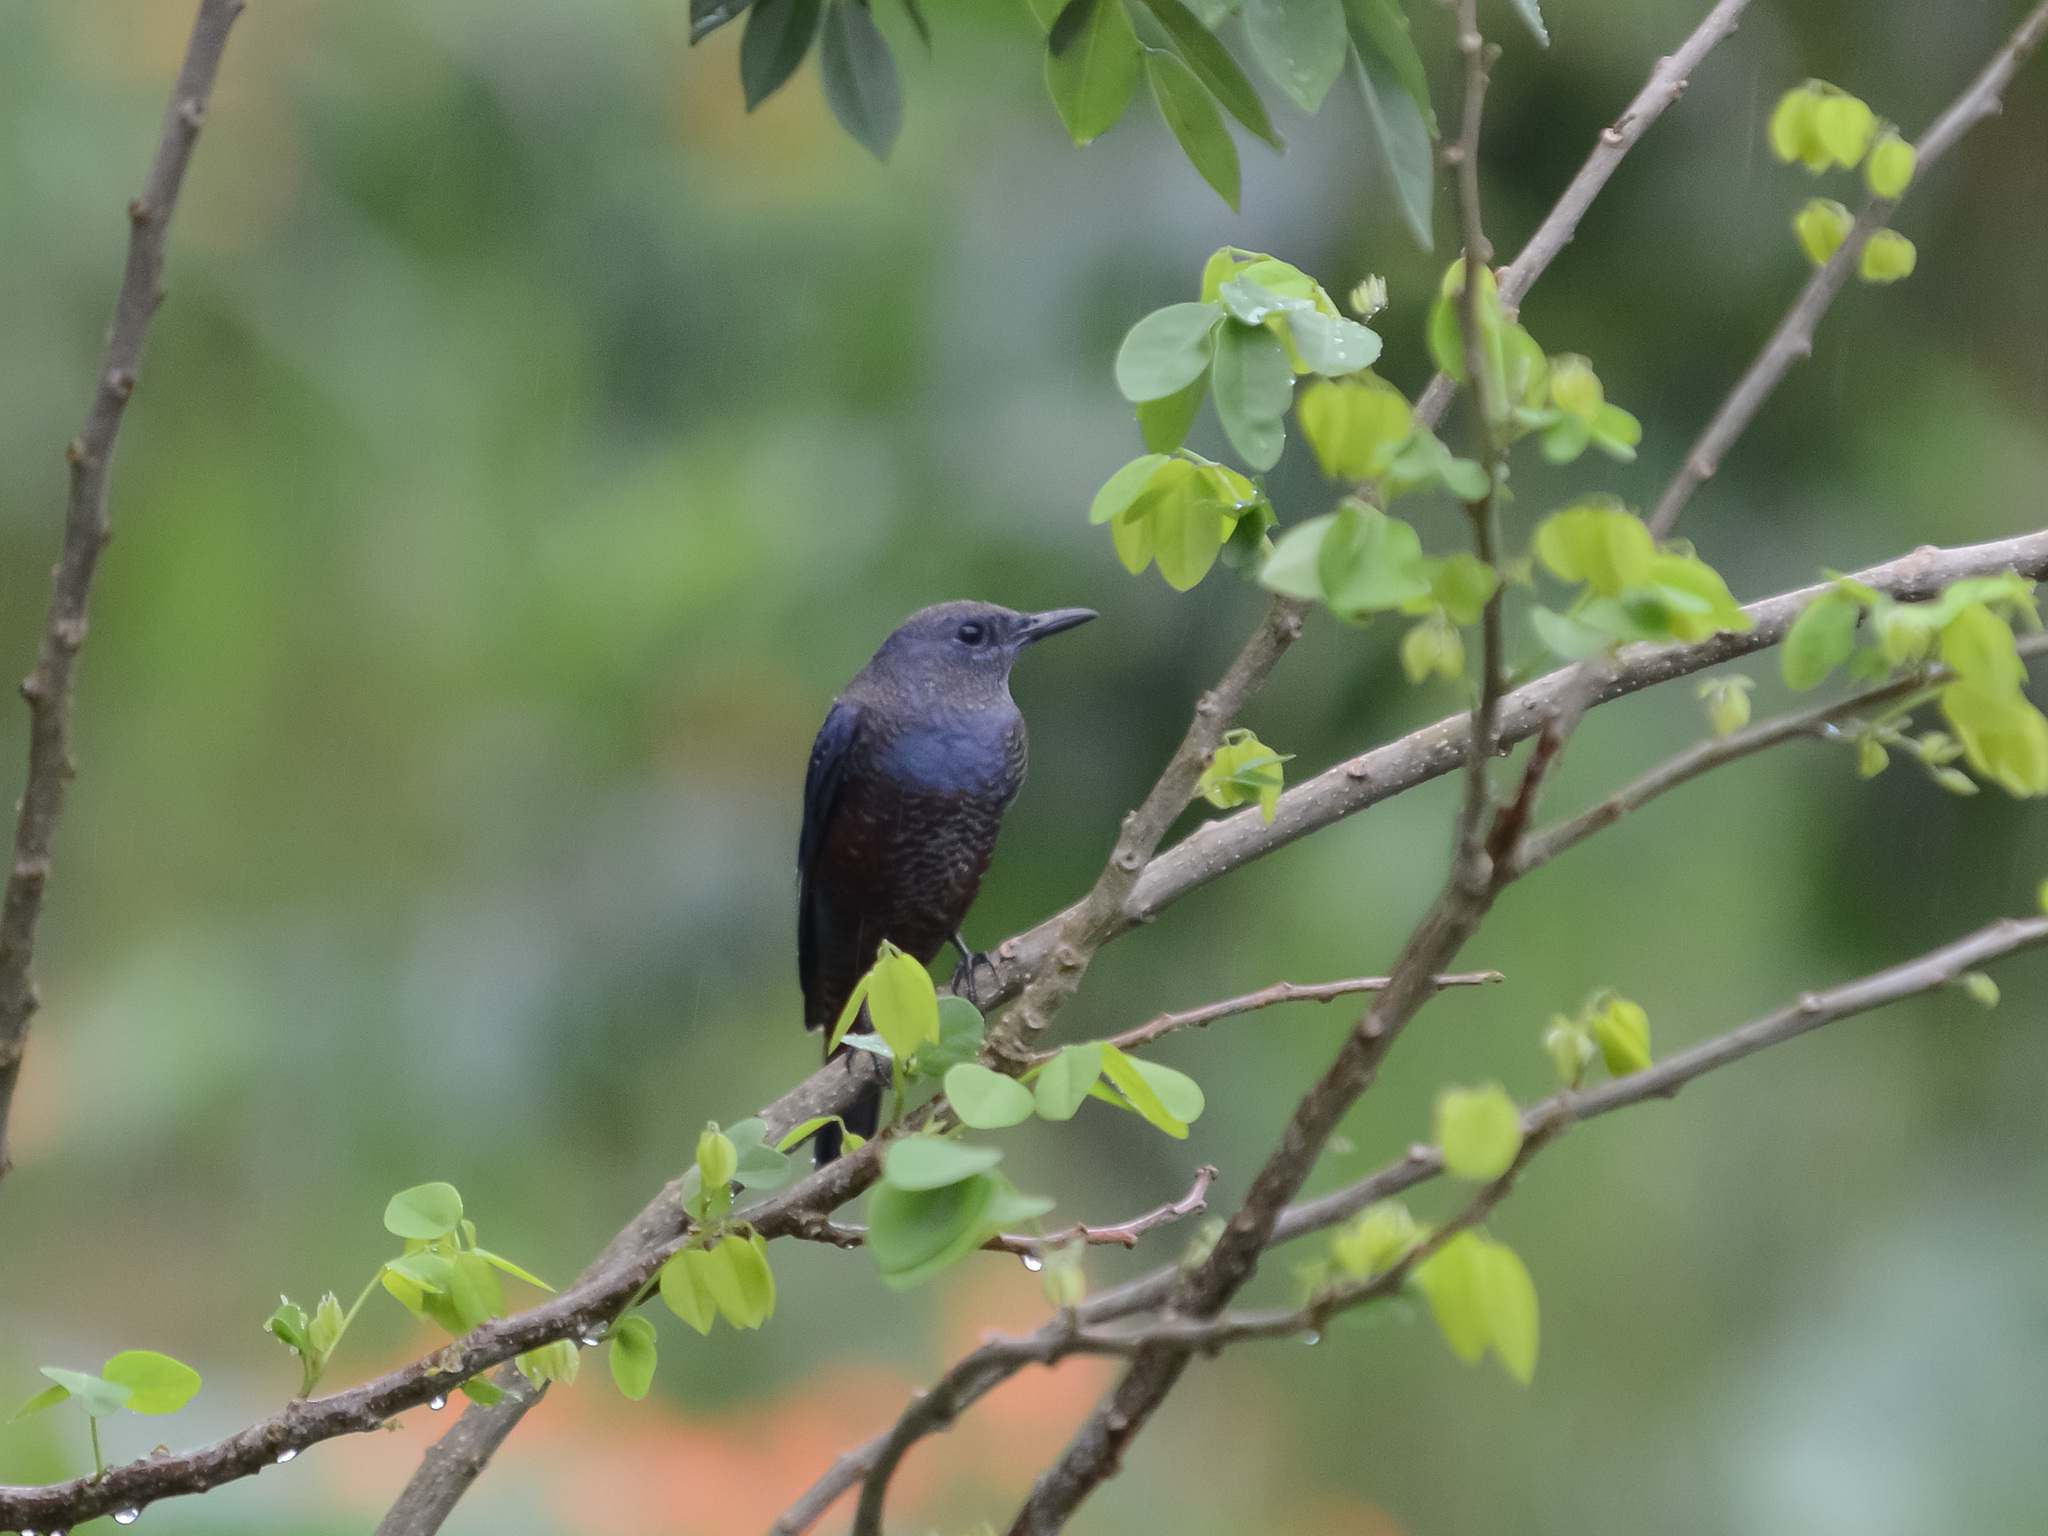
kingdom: Animalia
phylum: Chordata
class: Aves
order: Passeriformes
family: Muscicapidae
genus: Monticola
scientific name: Monticola solitarius
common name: Blue rock thrush
